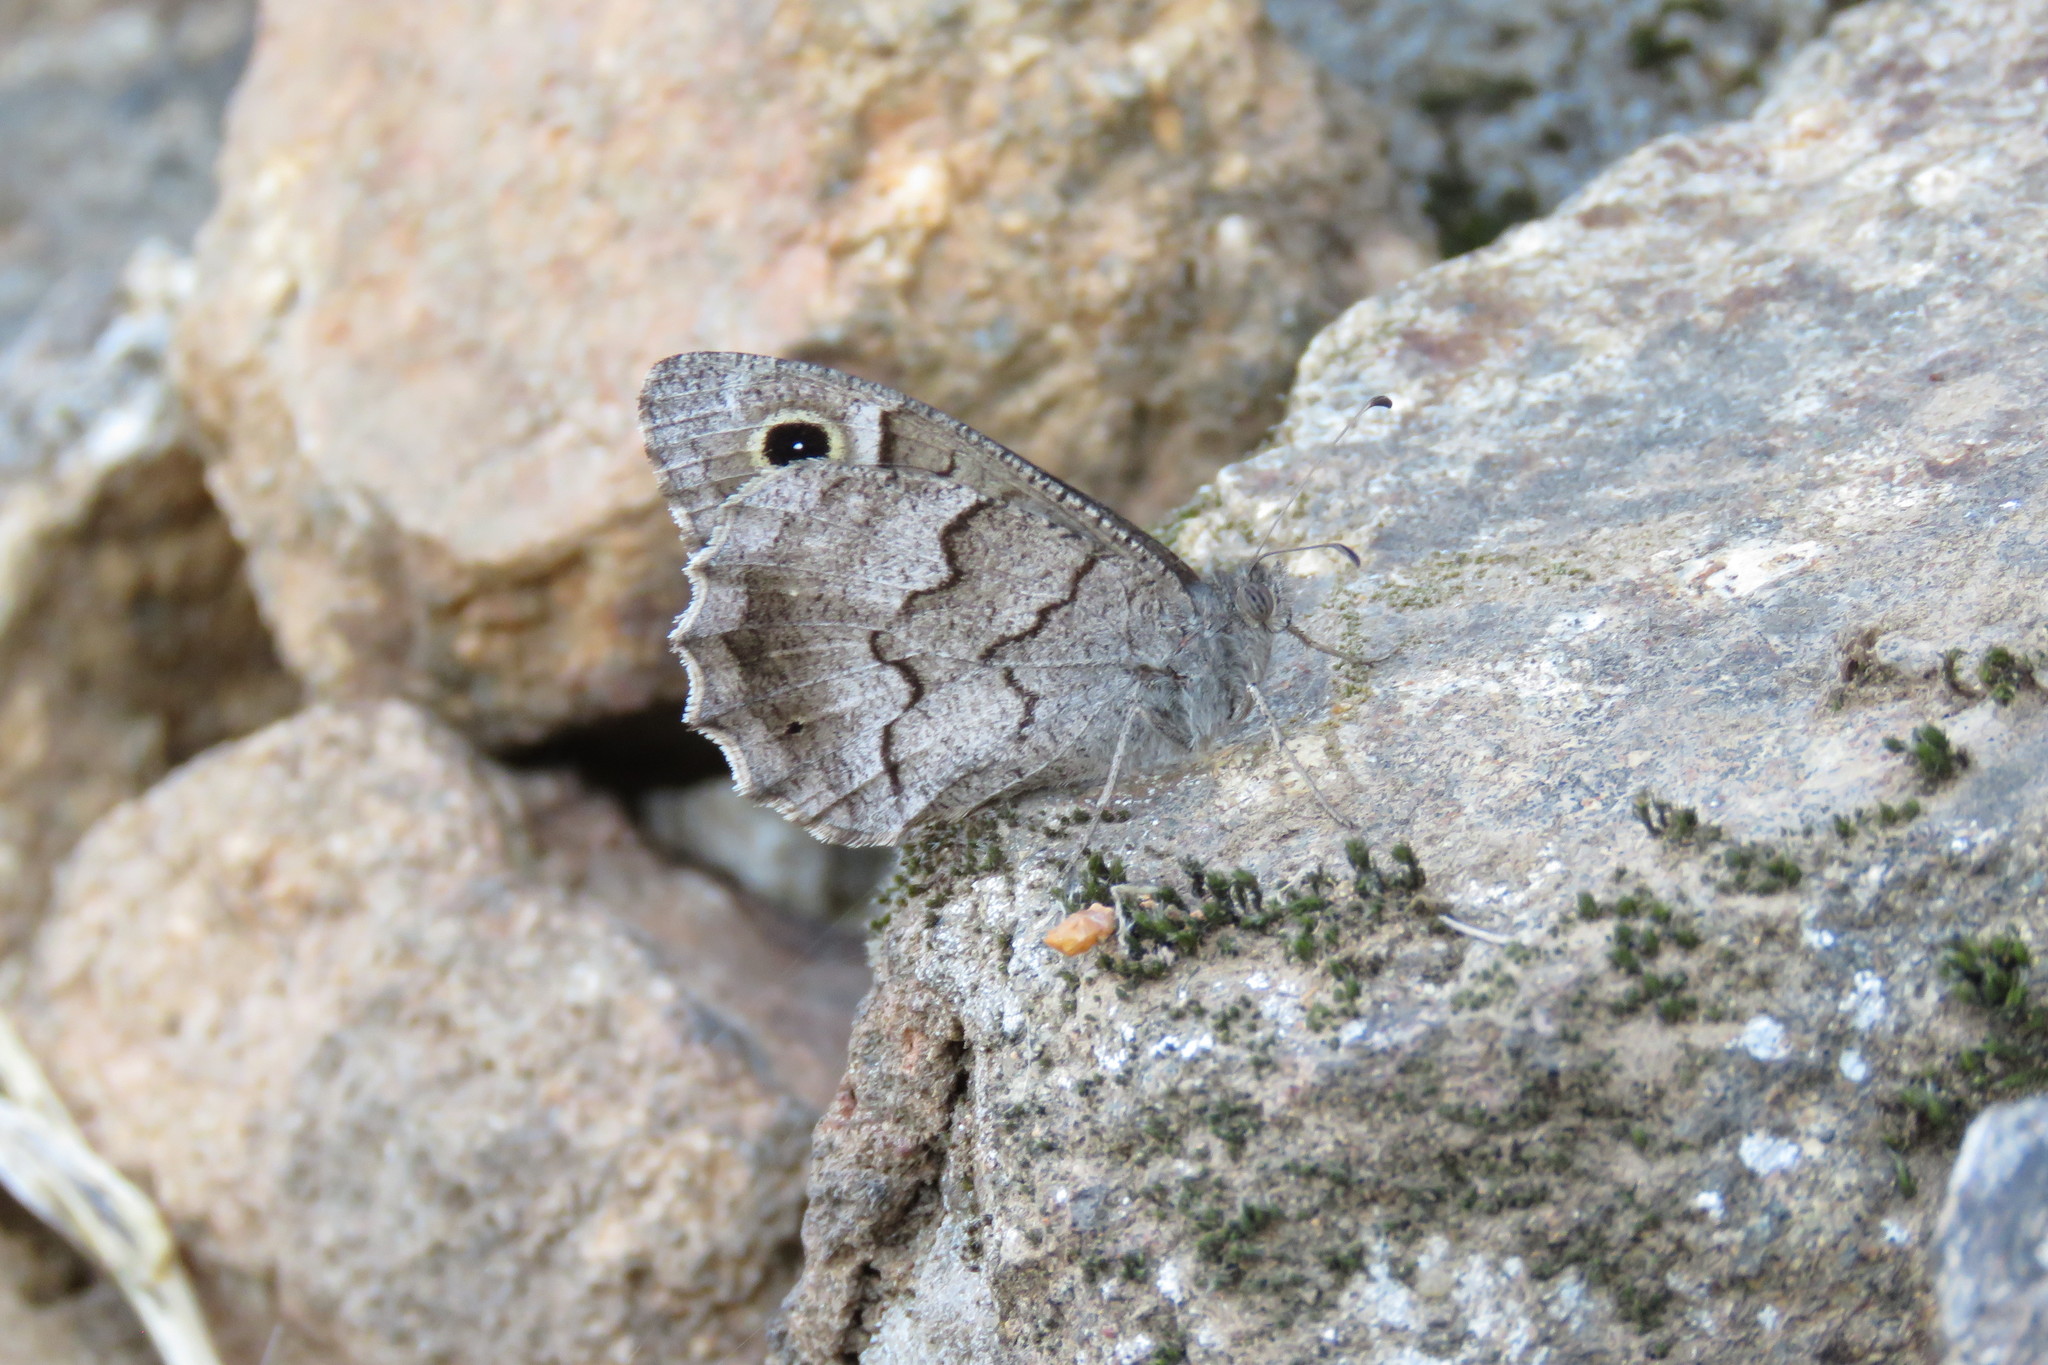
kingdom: Animalia
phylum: Arthropoda
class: Insecta
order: Lepidoptera
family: Nymphalidae
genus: Hipparchia
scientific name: Hipparchia statilinus
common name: Tree grayling
